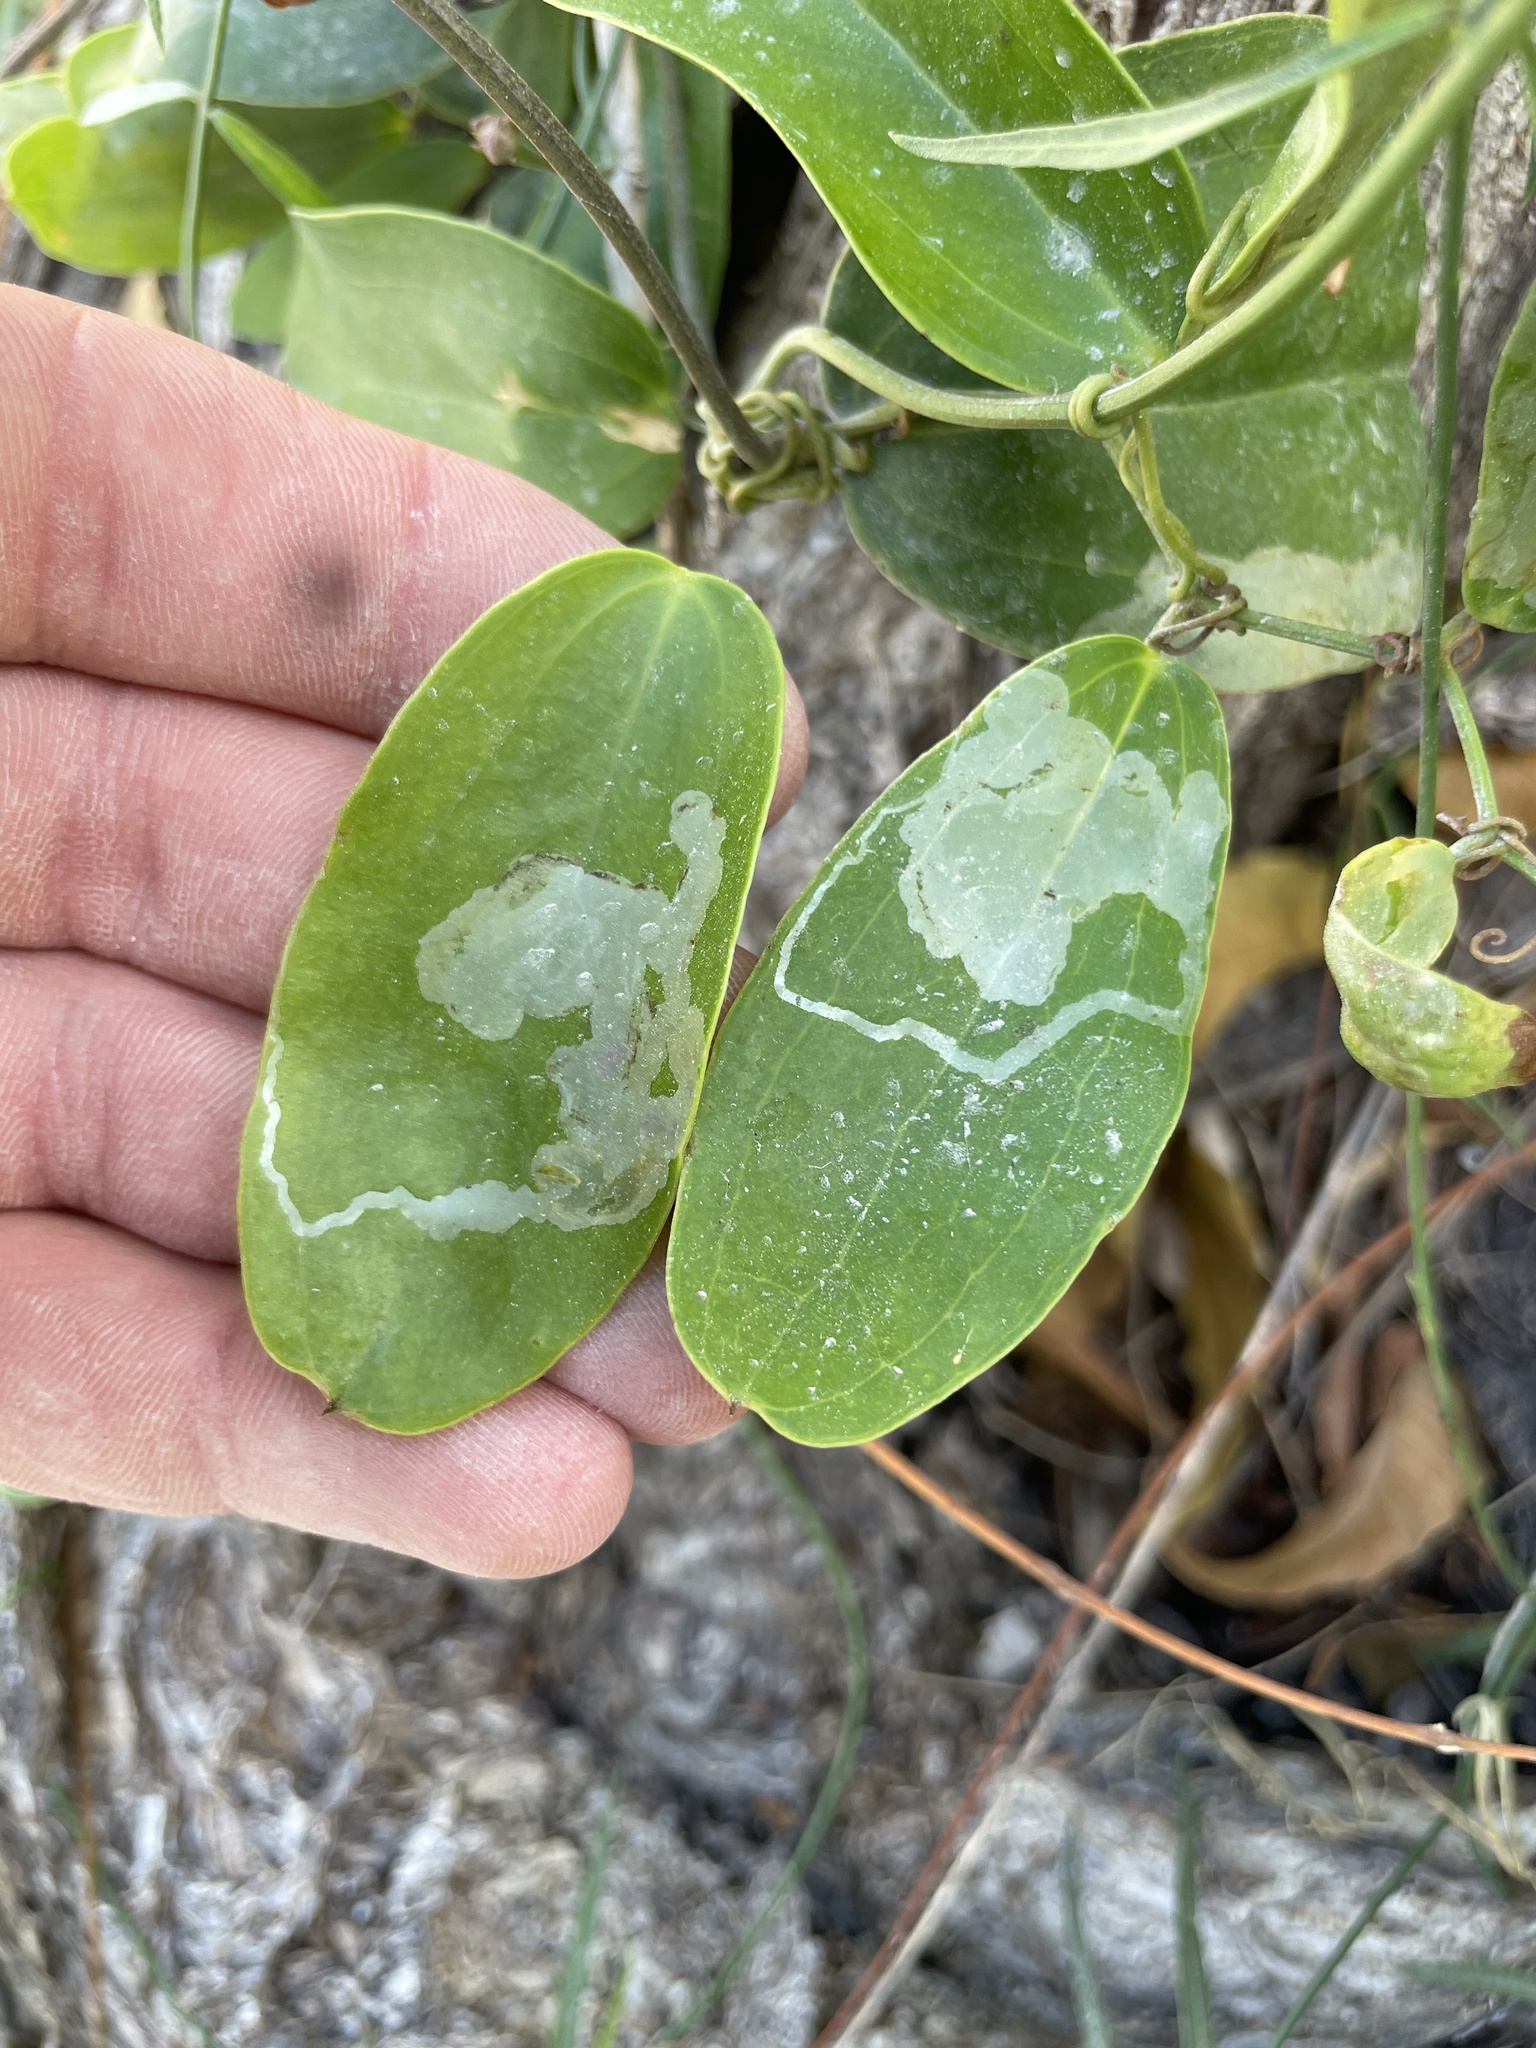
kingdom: Animalia
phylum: Arthropoda
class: Insecta
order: Diptera
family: Agromyzidae
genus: Liriomyza
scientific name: Liriomyza schmidti
